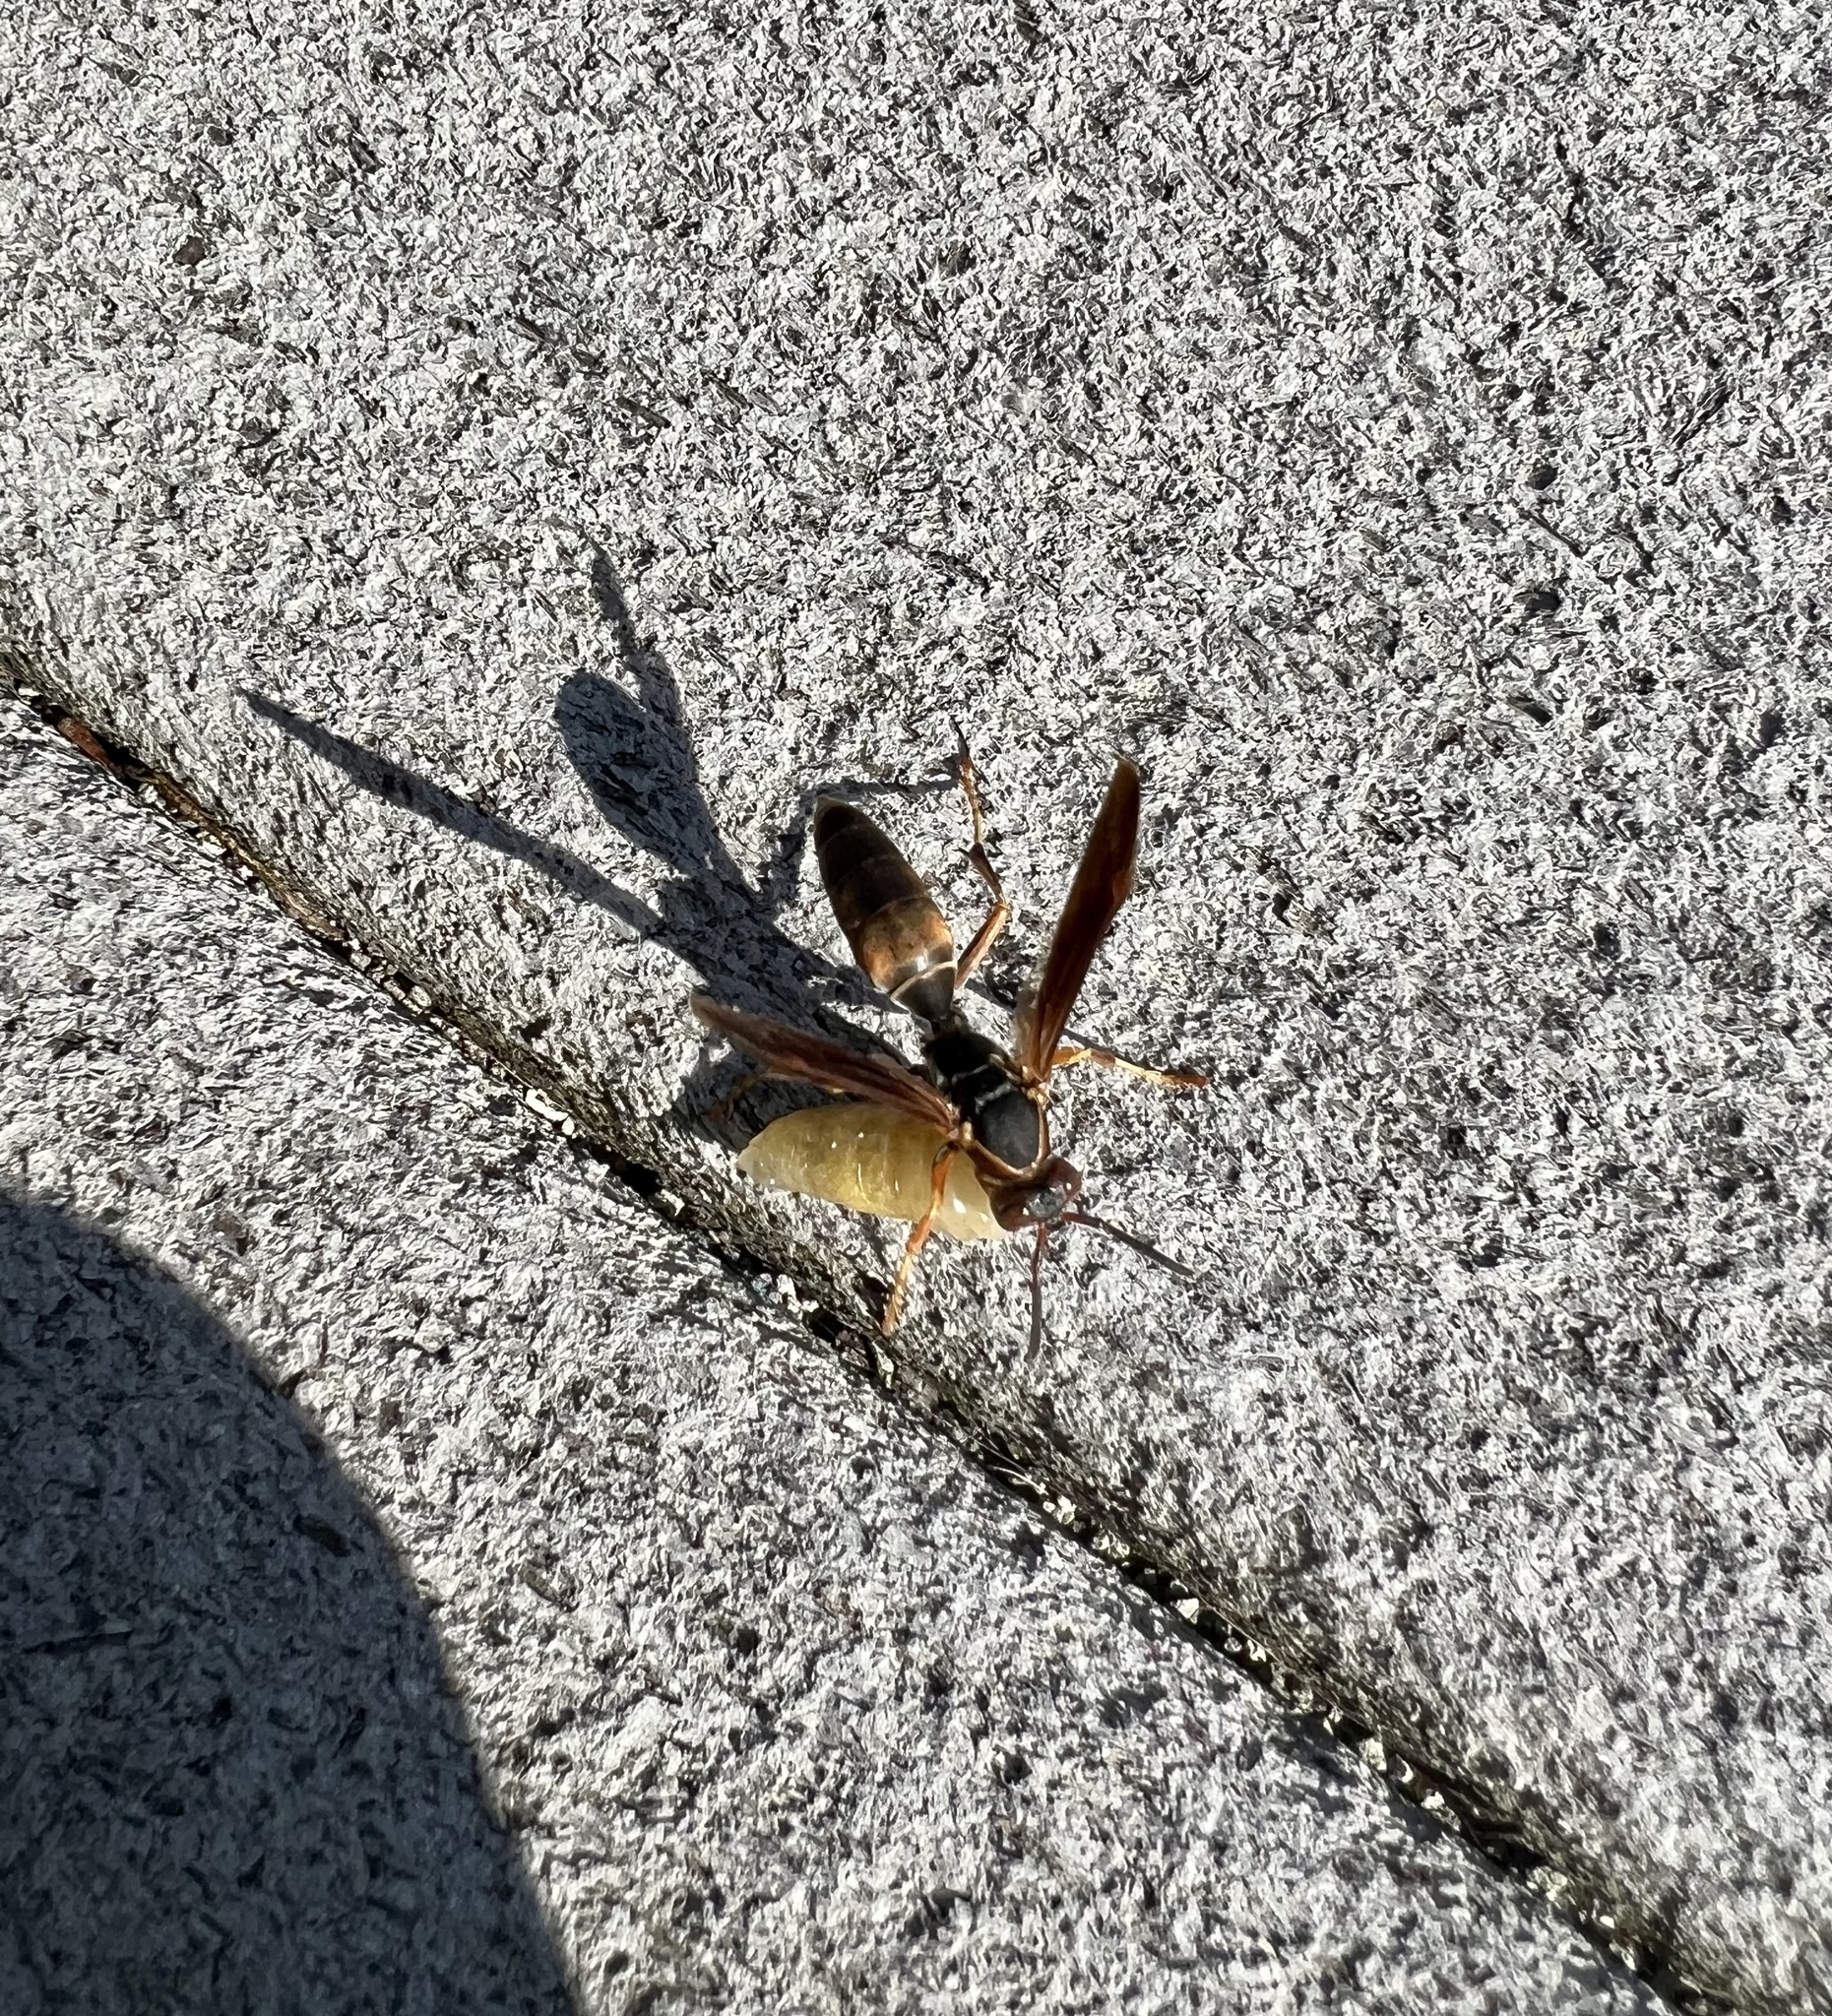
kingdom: Animalia
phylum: Arthropoda
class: Insecta
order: Hymenoptera
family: Eumenidae
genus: Polistes
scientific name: Polistes fuscatus
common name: Dark paper wasp
